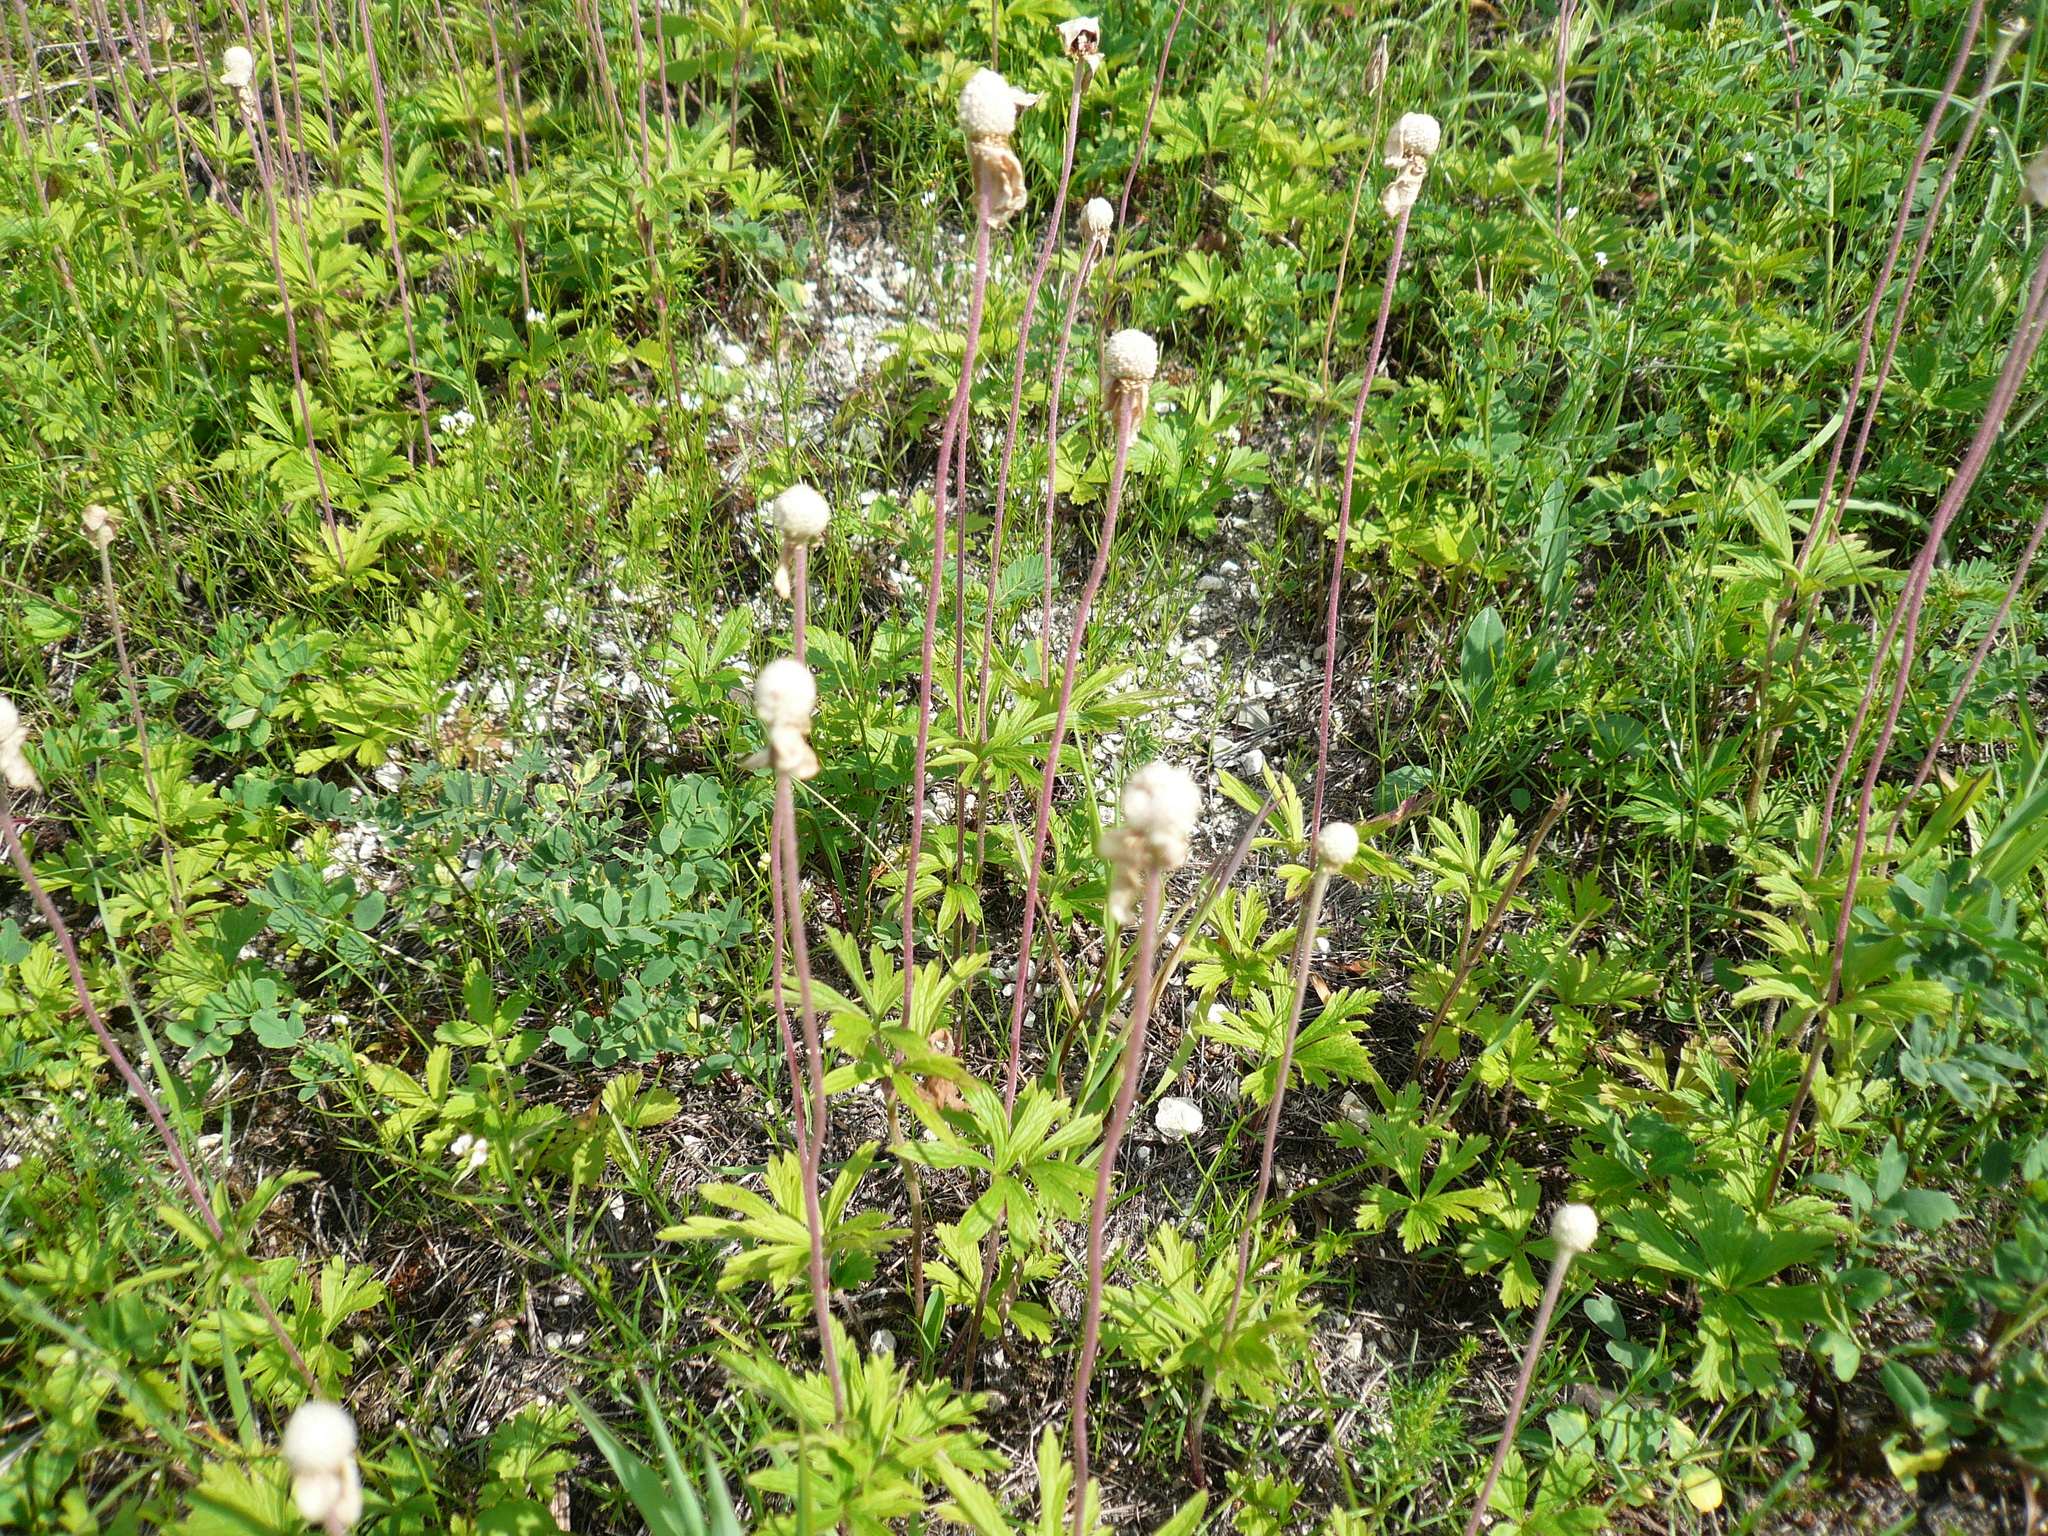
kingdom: Plantae
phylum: Tracheophyta
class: Magnoliopsida
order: Ranunculales
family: Ranunculaceae
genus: Anemone
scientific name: Anemone sylvestris
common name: Snowdrop anemone
